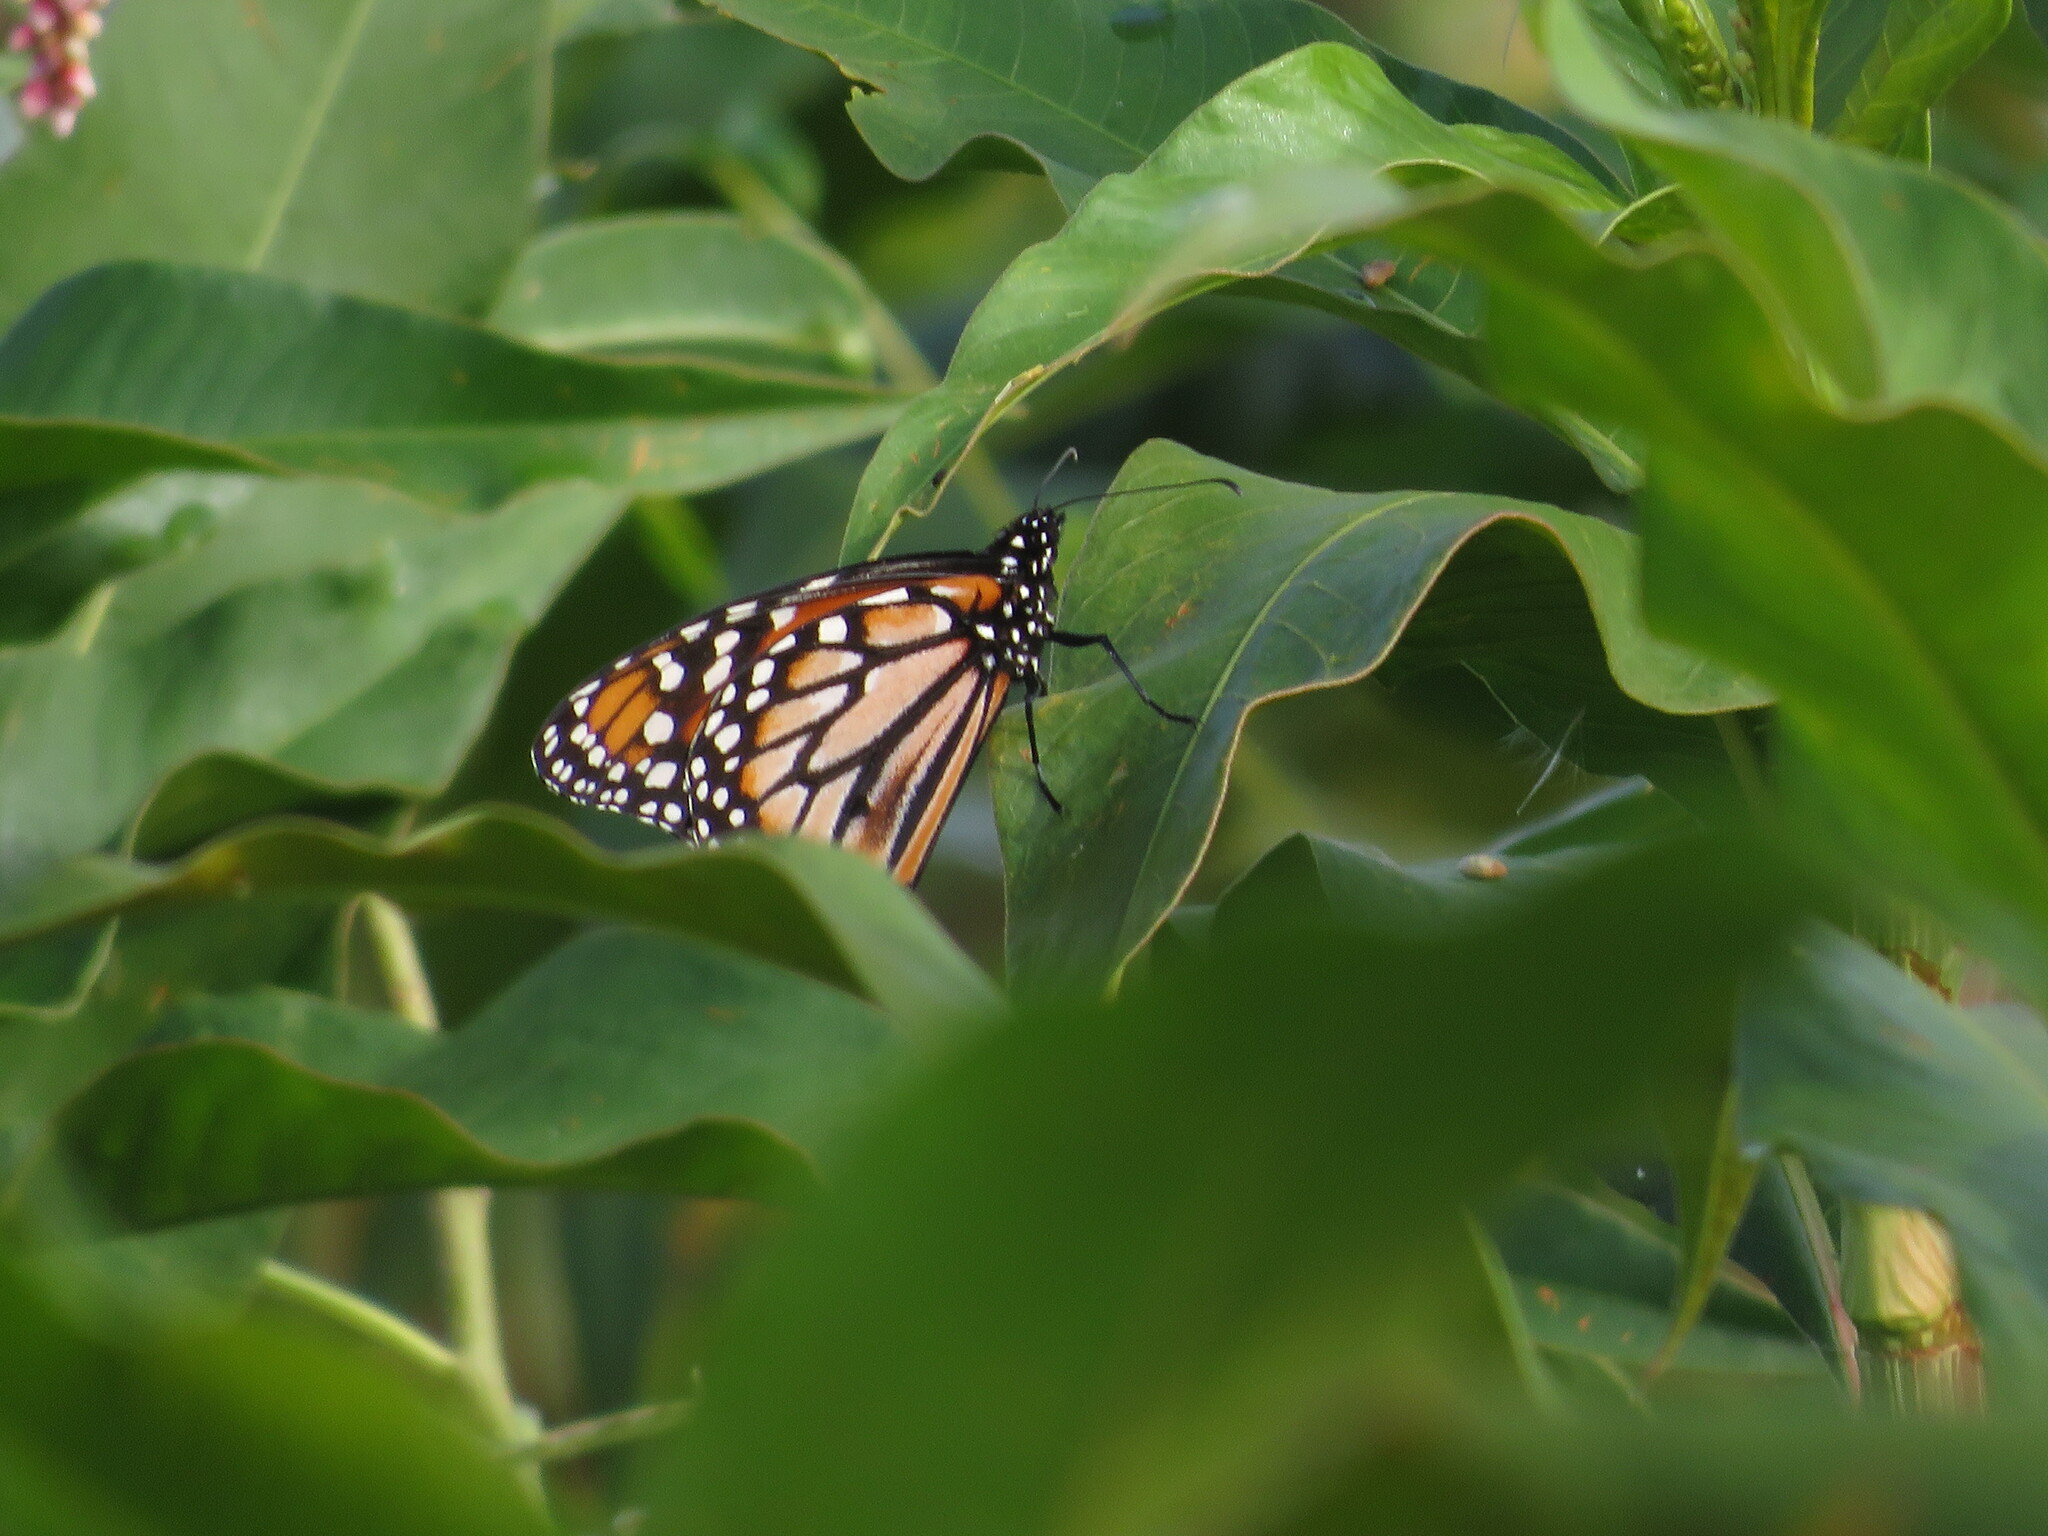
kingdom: Animalia
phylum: Arthropoda
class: Insecta
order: Lepidoptera
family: Nymphalidae
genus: Danaus
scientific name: Danaus erippus
